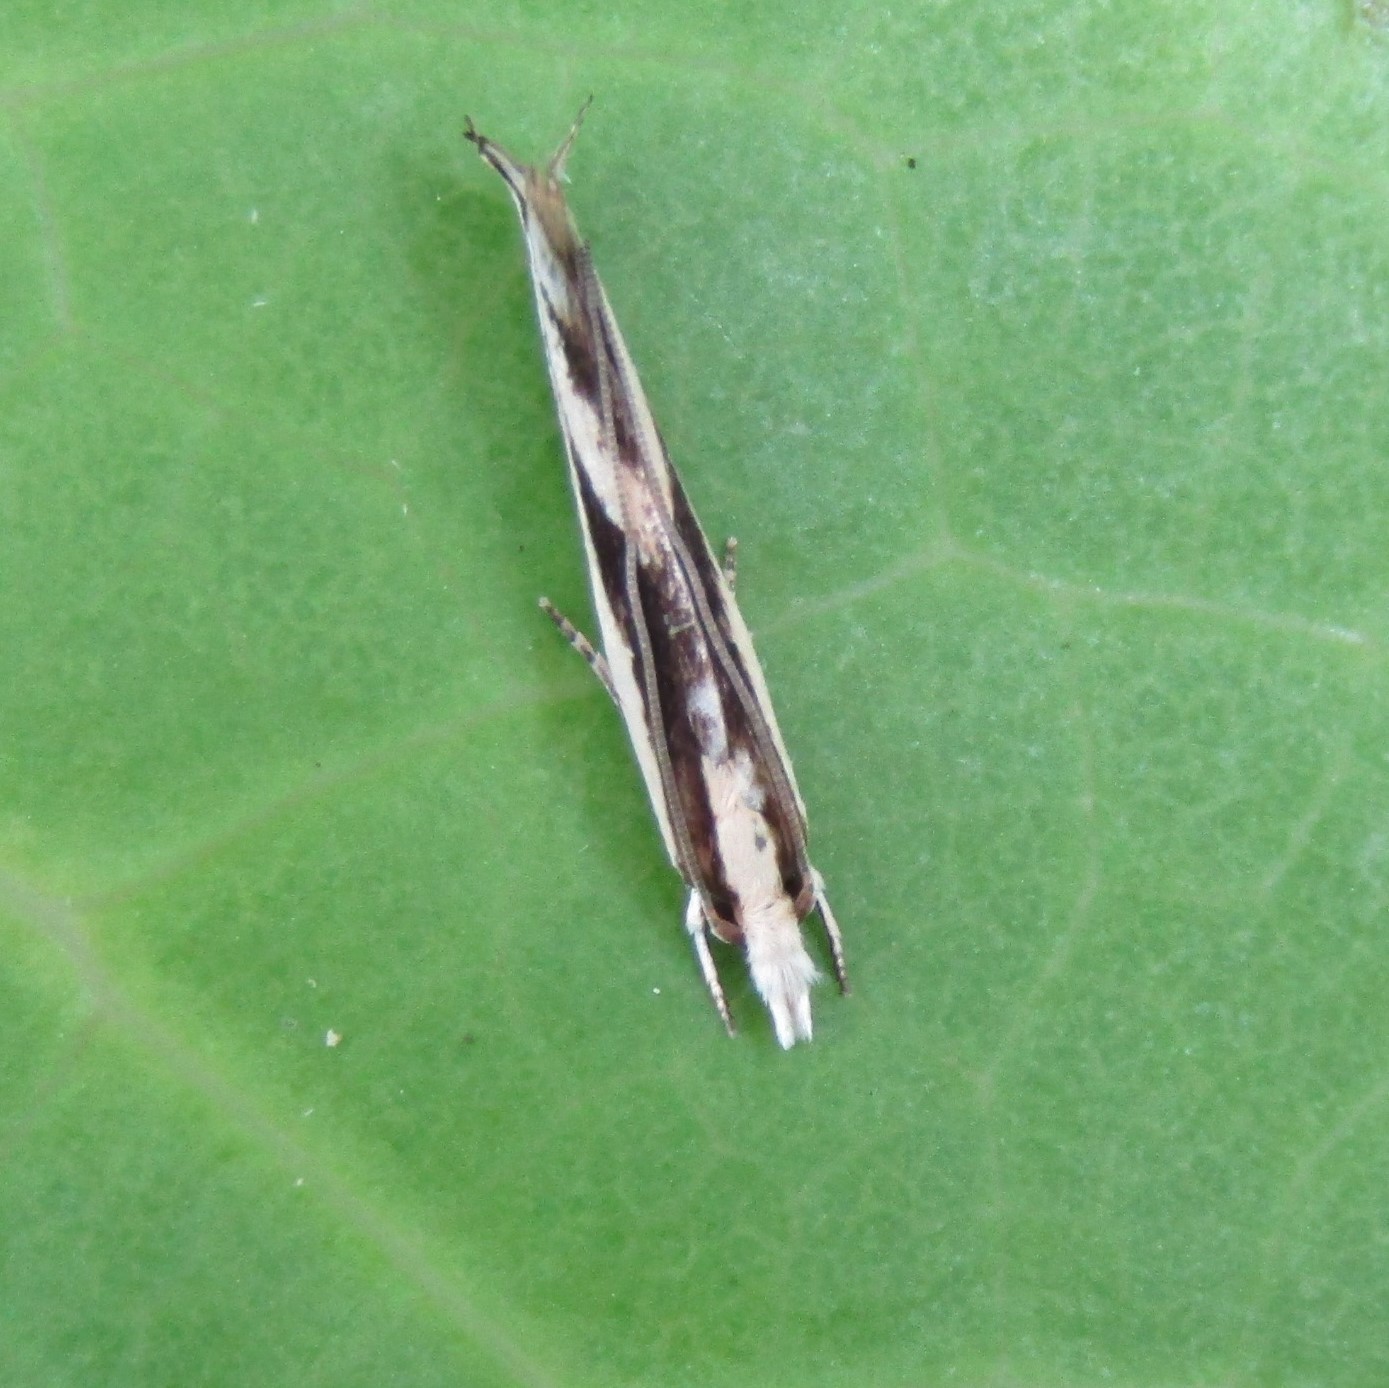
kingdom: Animalia
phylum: Arthropoda
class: Insecta
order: Lepidoptera
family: Tineidae
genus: Erechthias
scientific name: Erechthias chasmatias
